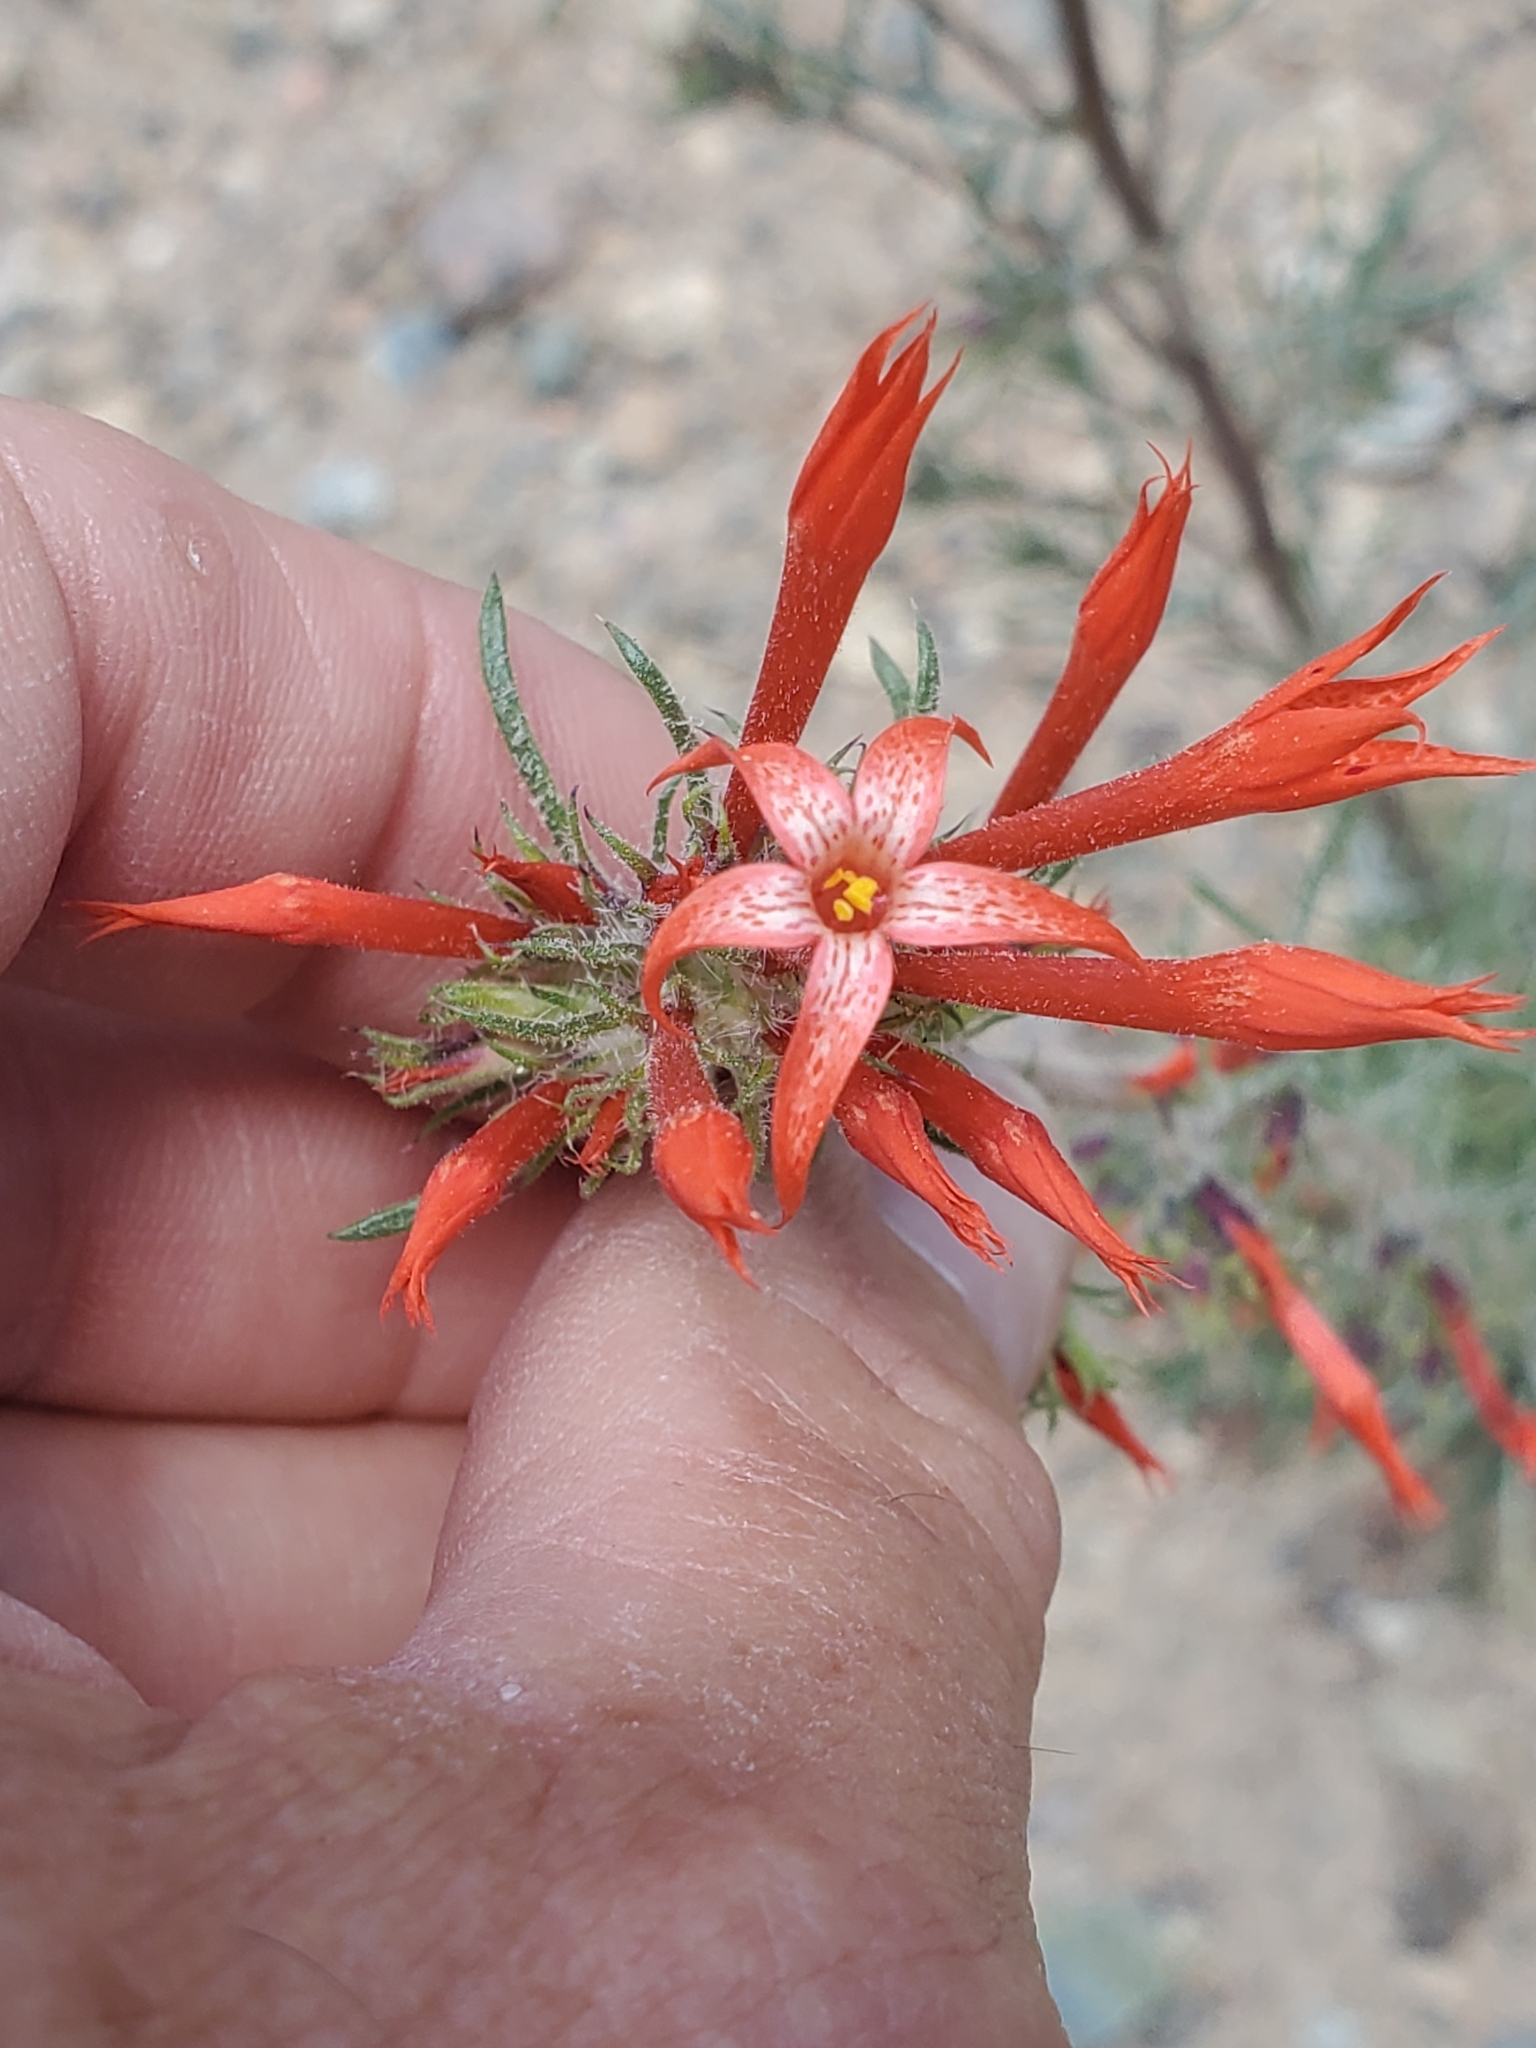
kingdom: Plantae
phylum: Tracheophyta
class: Magnoliopsida
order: Ericales
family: Polemoniaceae
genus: Ipomopsis
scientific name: Ipomopsis aggregata
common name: Scarlet gilia
